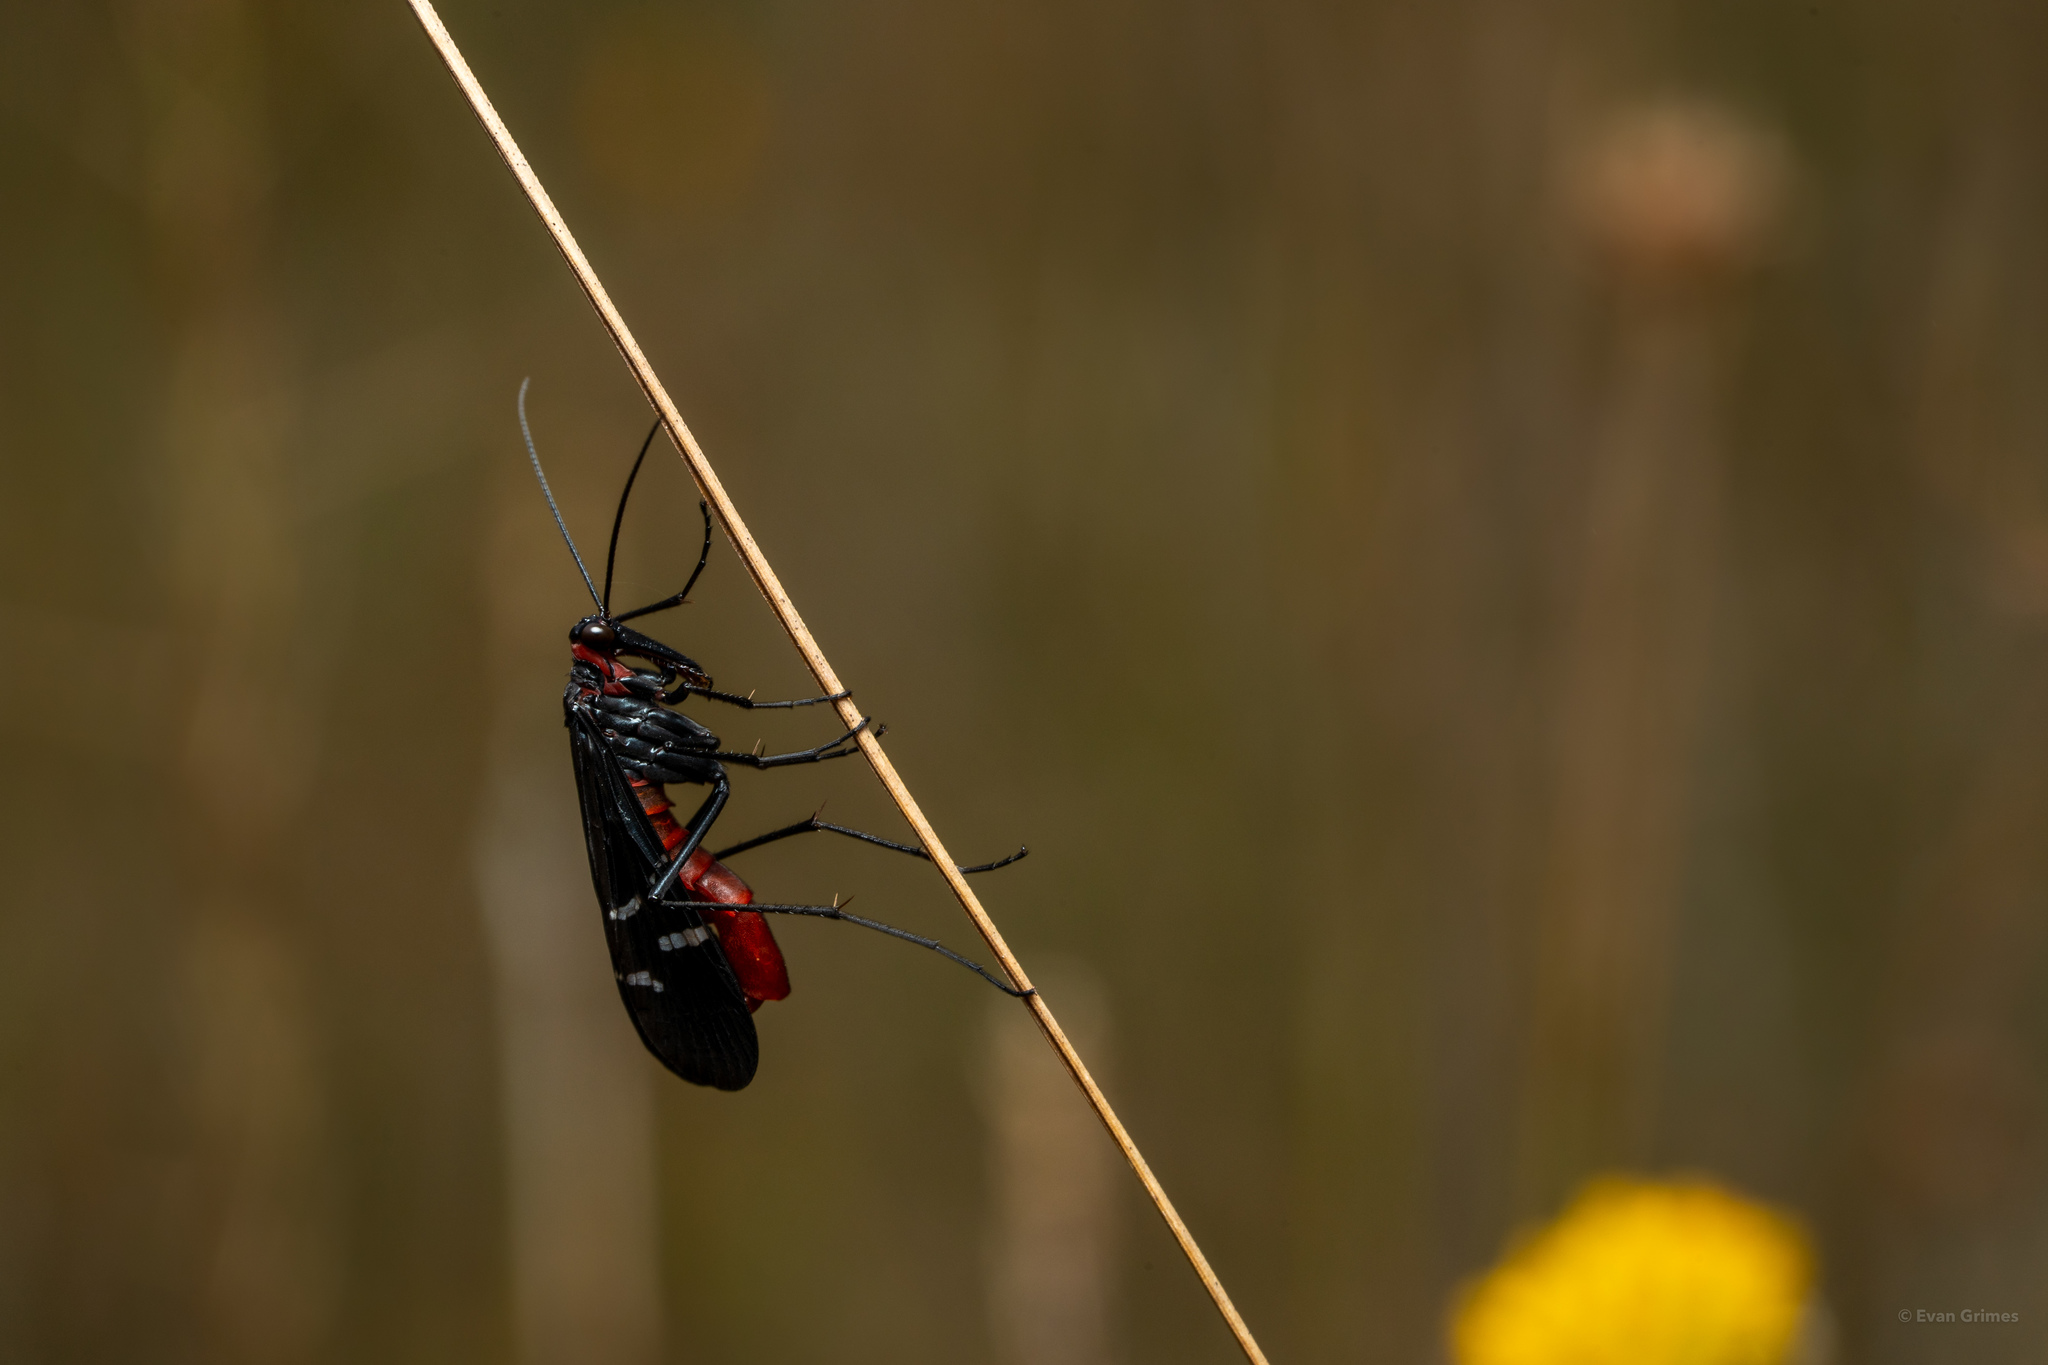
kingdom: Animalia
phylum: Arthropoda
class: Insecta
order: Mecoptera
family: Panorpidae
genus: Panorpa
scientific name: Panorpa lugubris
